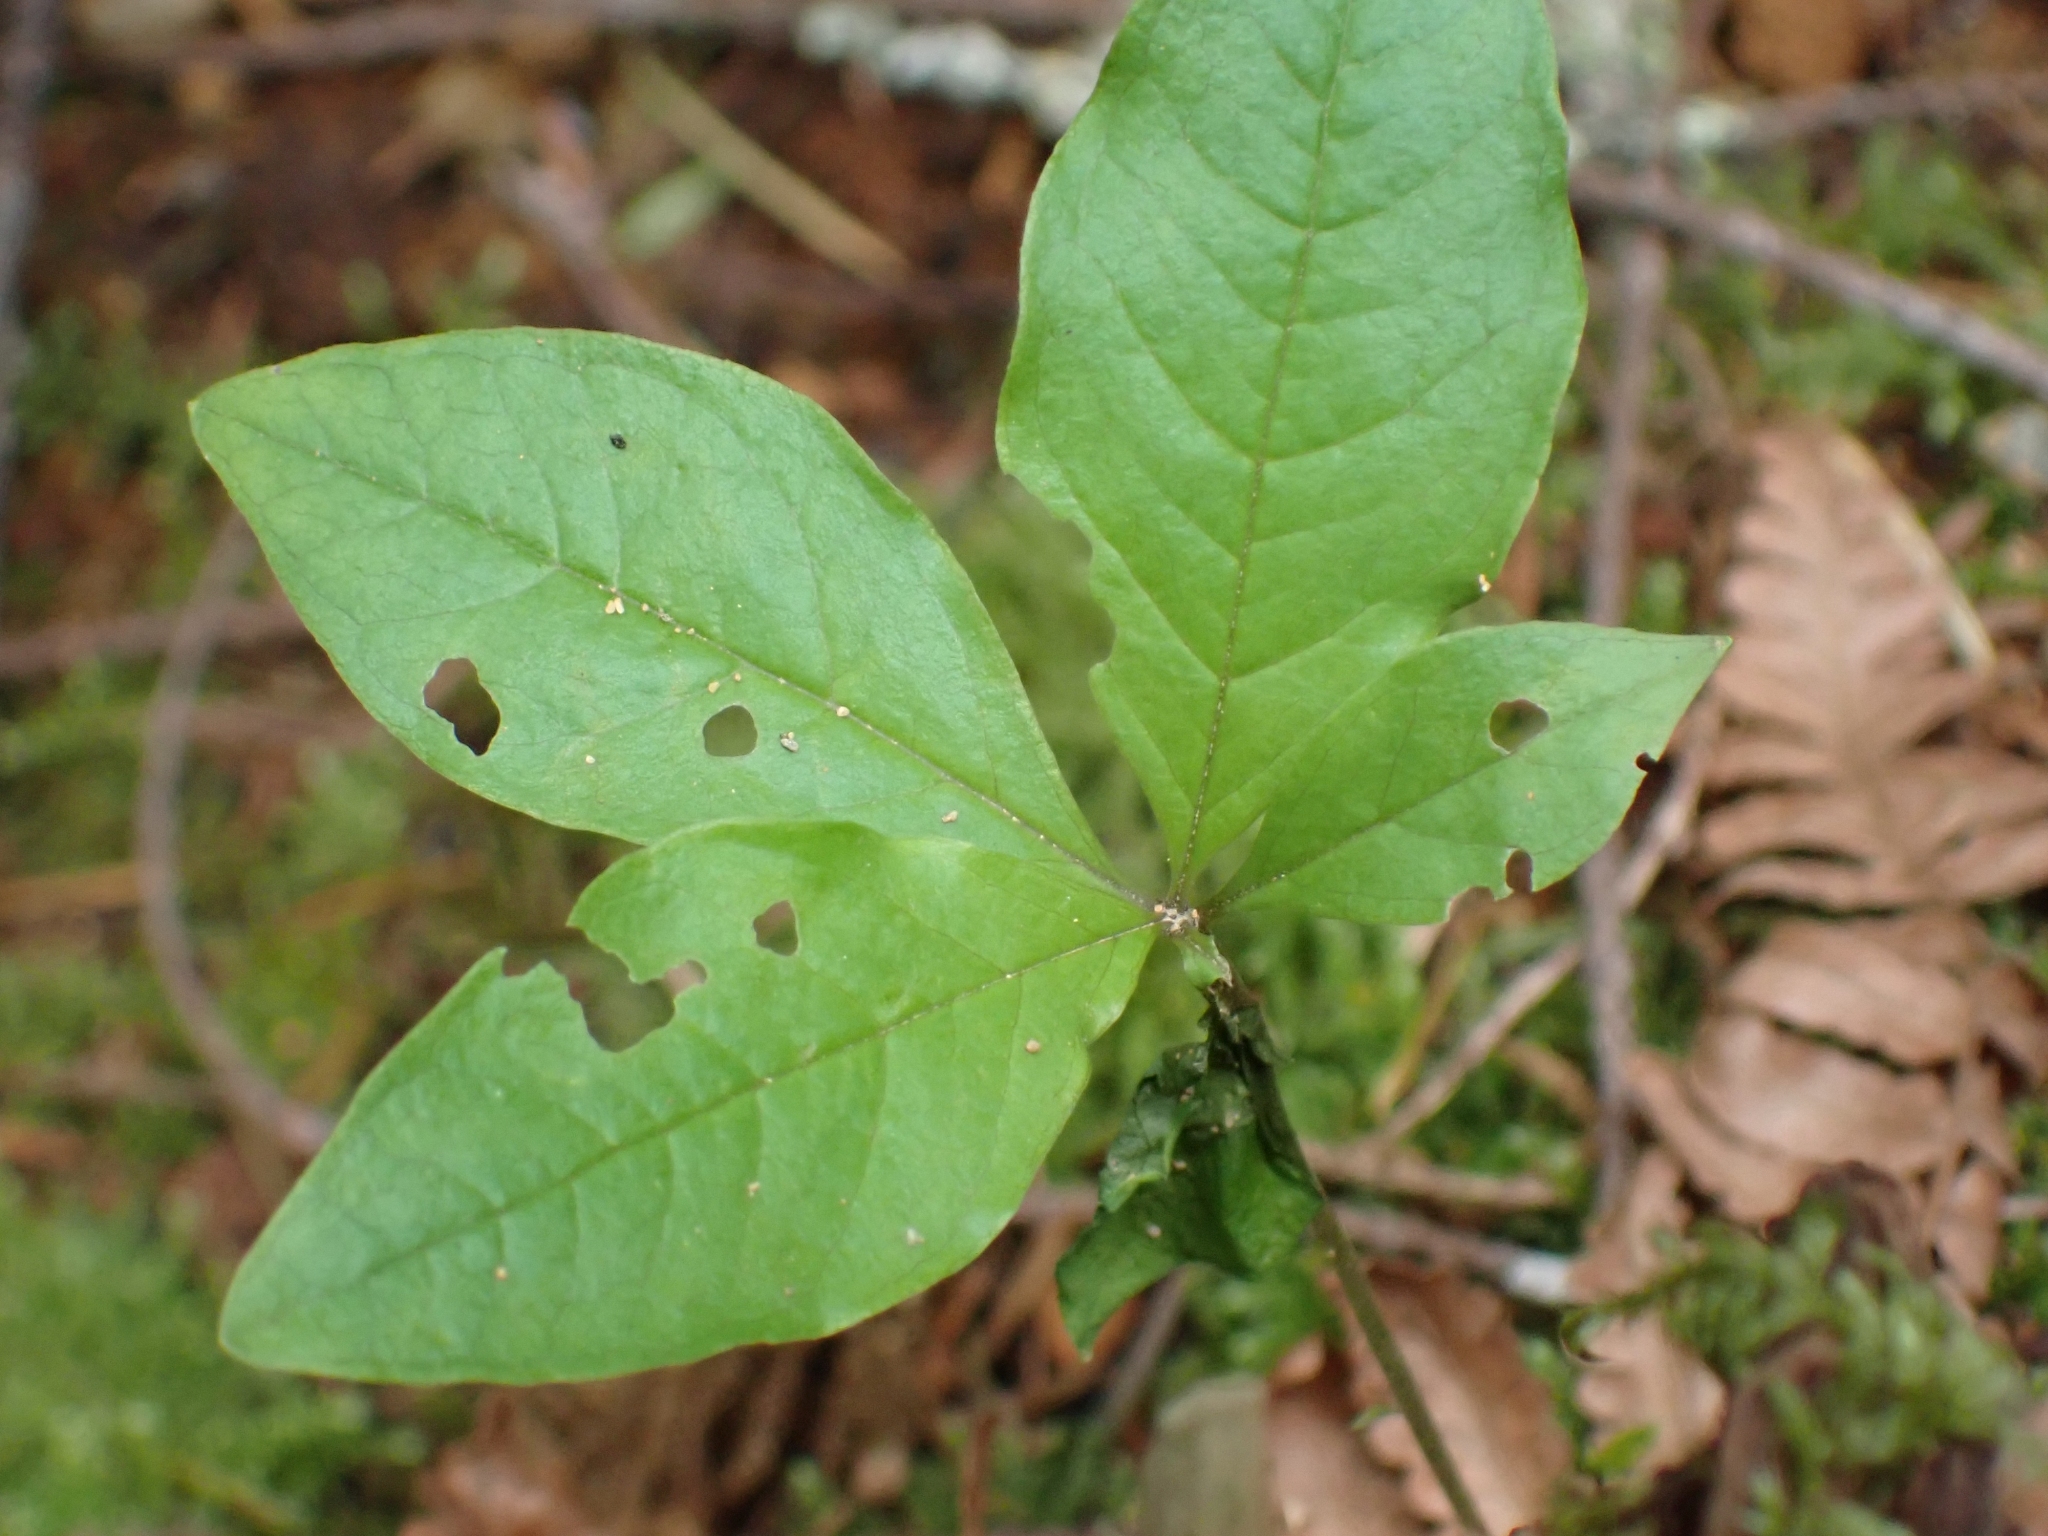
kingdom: Plantae
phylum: Tracheophyta
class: Magnoliopsida
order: Ericales
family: Primulaceae
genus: Lysimachia
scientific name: Lysimachia latifolia
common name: Pacific starflower
